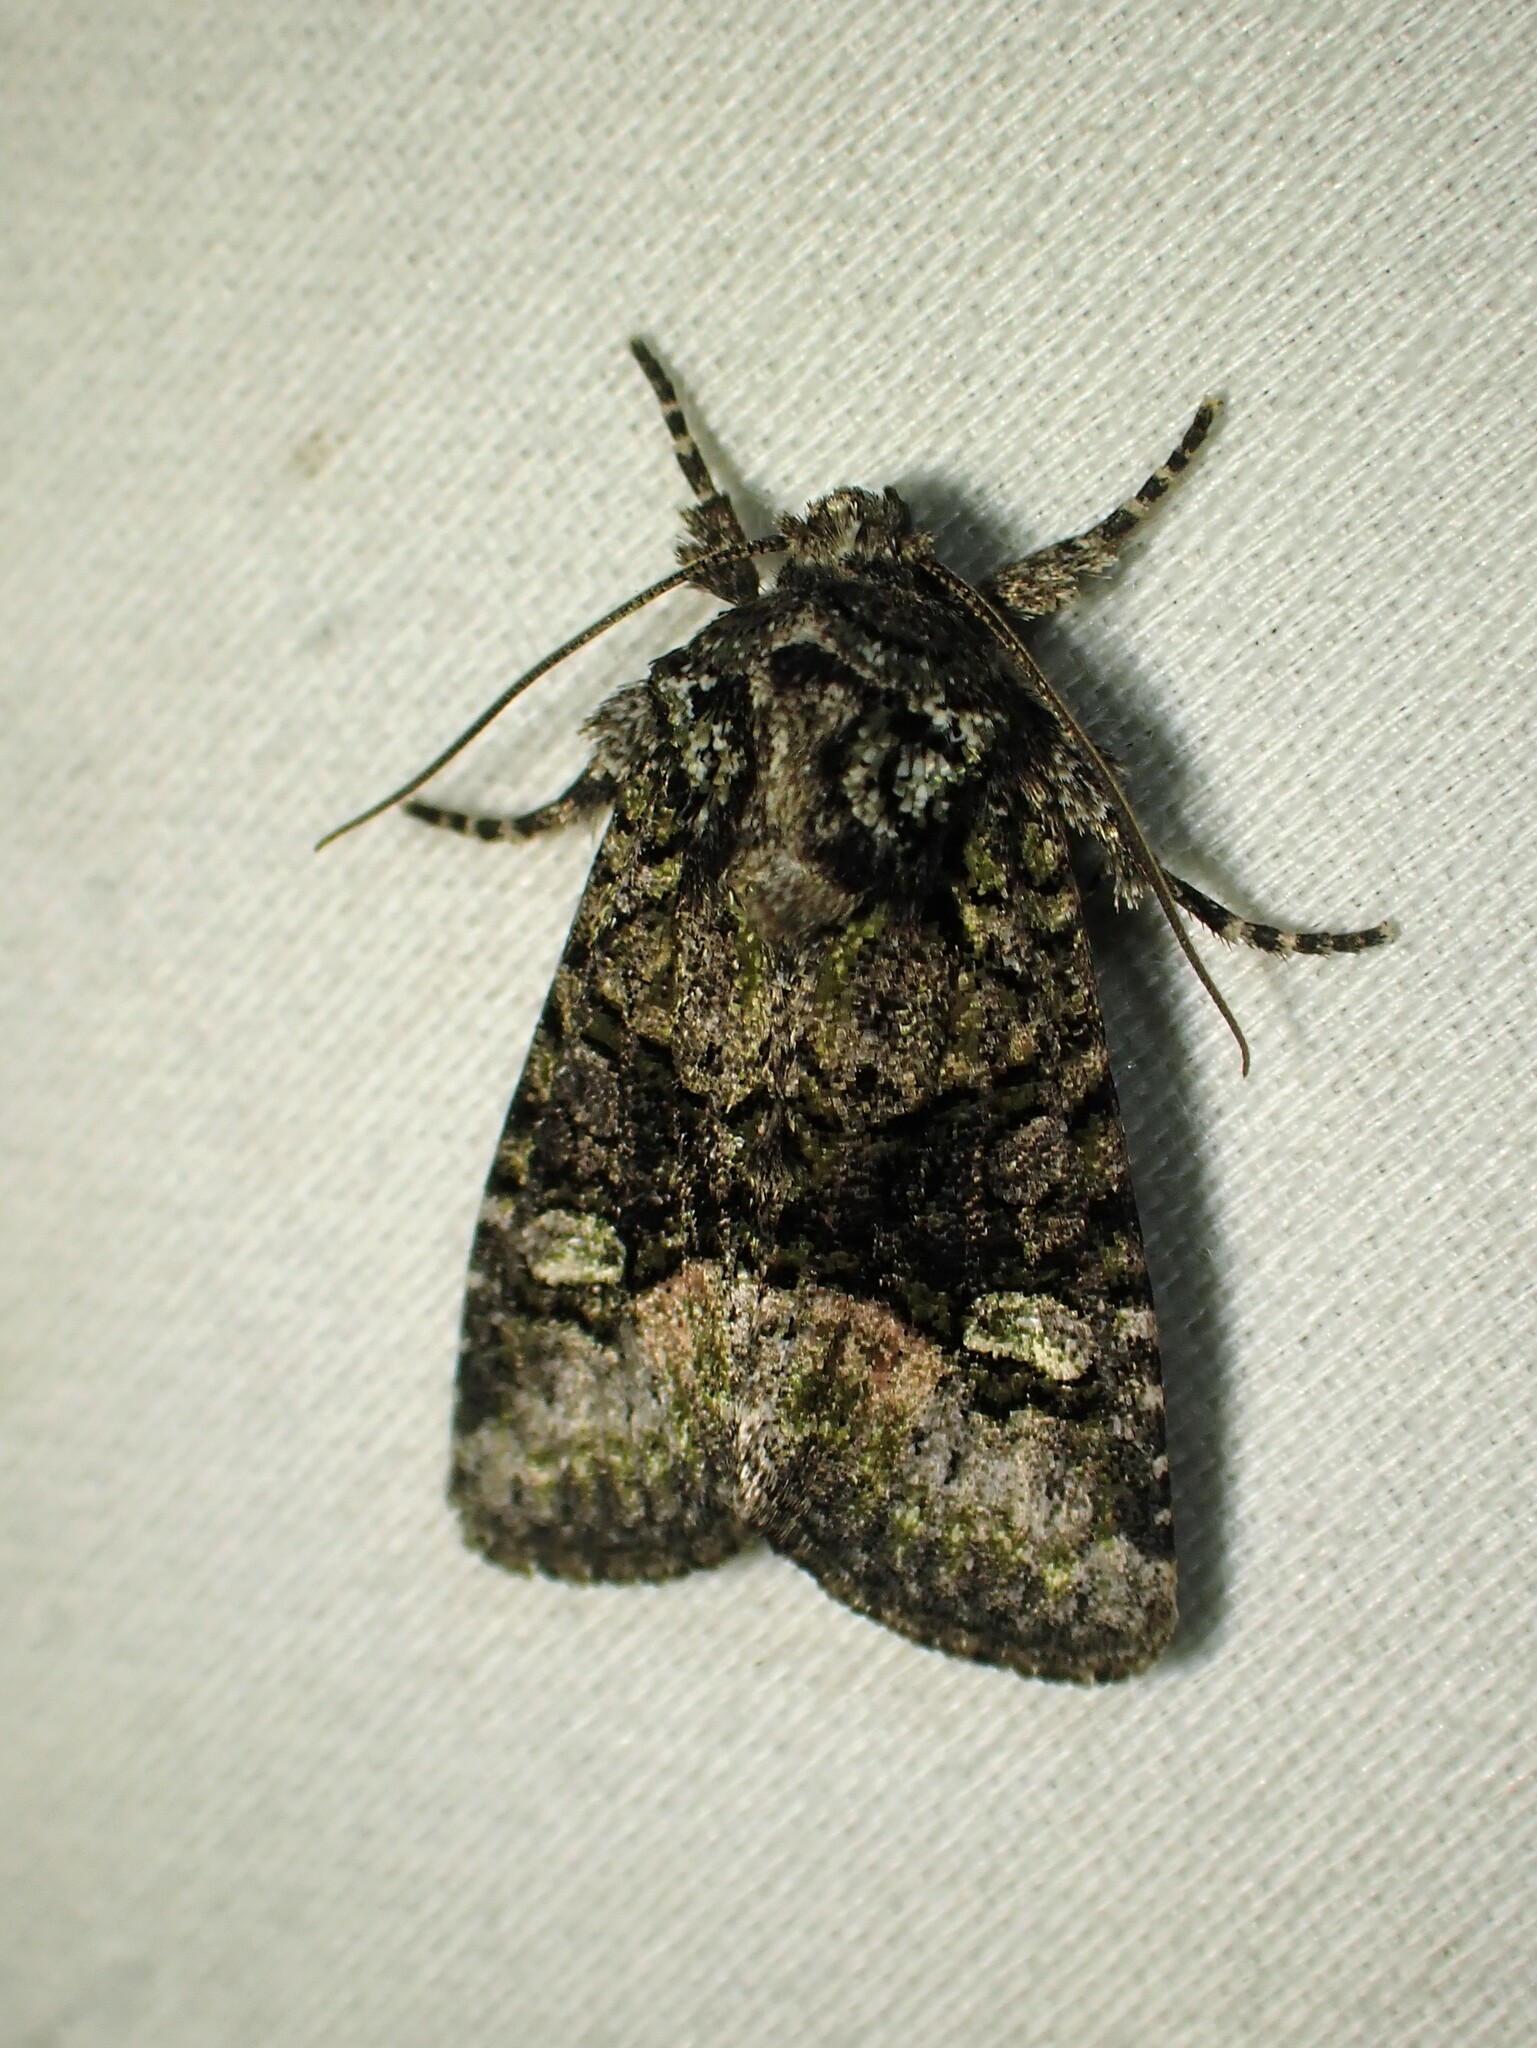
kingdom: Animalia
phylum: Arthropoda
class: Insecta
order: Lepidoptera
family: Noctuidae
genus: Lacinipolia
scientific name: Lacinipolia olivacea
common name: Olive arches moth
